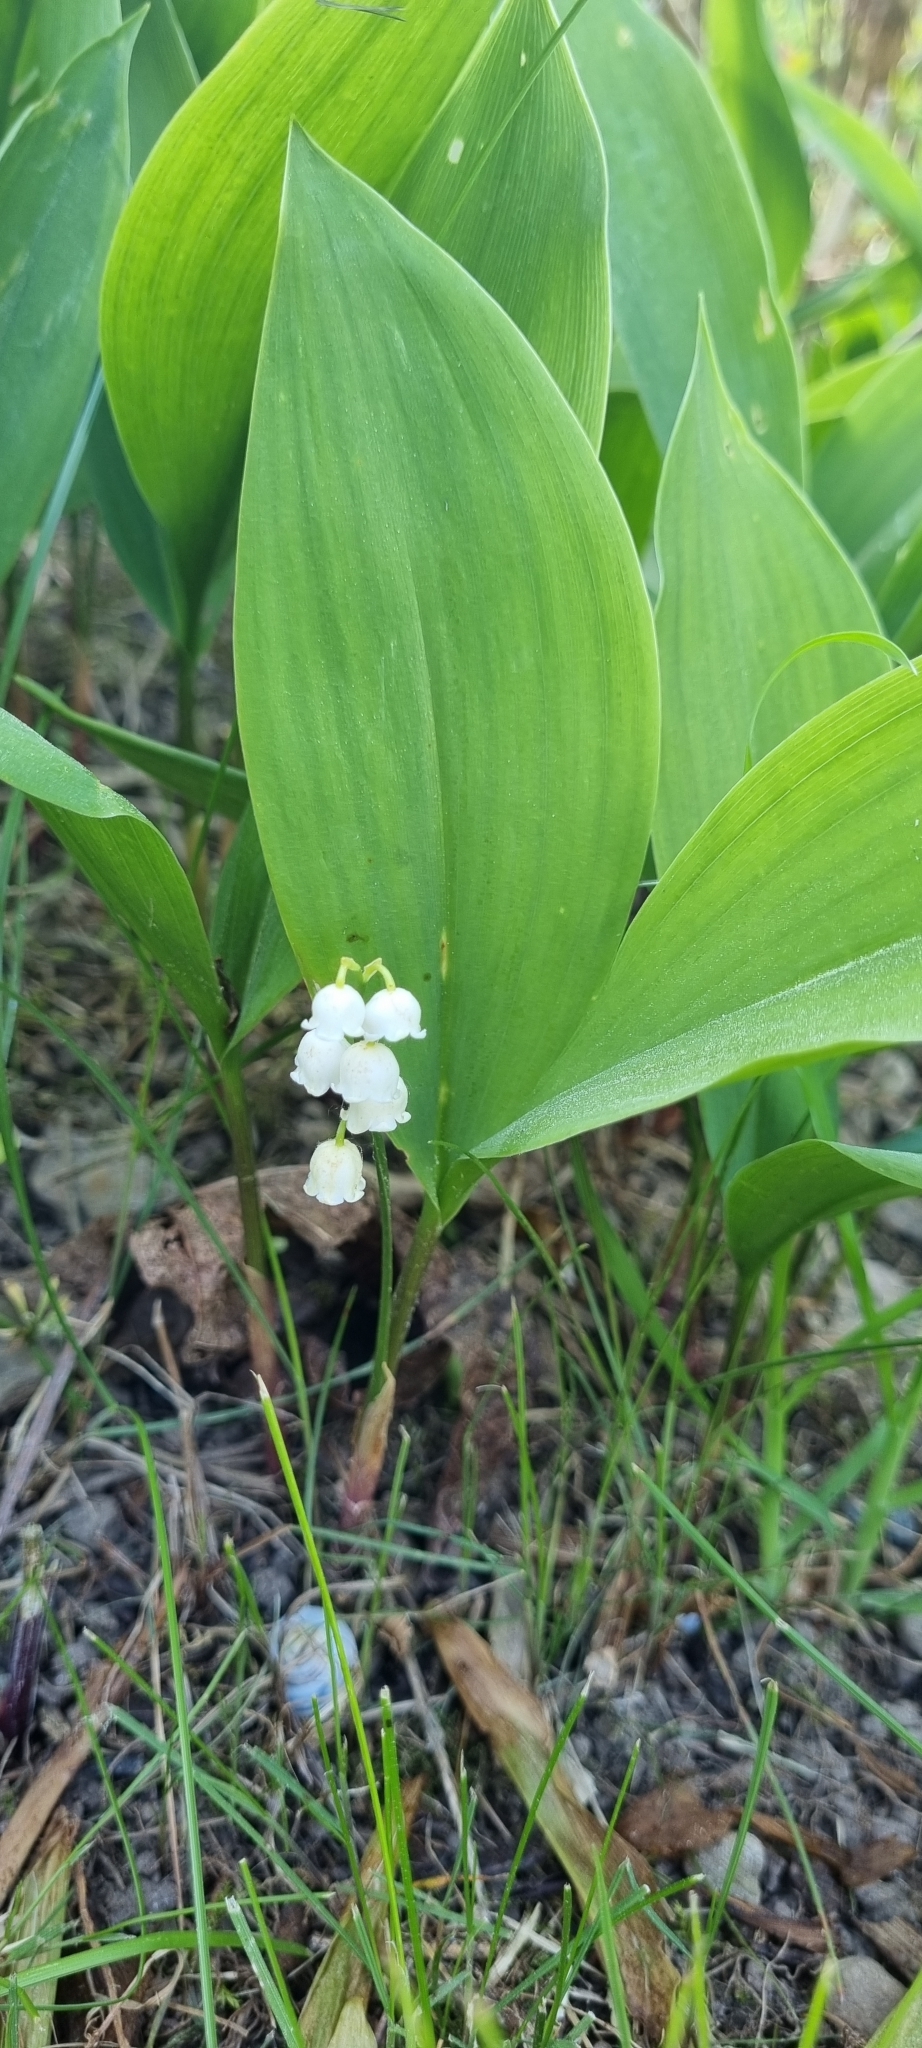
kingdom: Plantae
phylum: Tracheophyta
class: Liliopsida
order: Asparagales
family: Asparagaceae
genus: Convallaria
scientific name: Convallaria majalis
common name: Lily-of-the-valley
